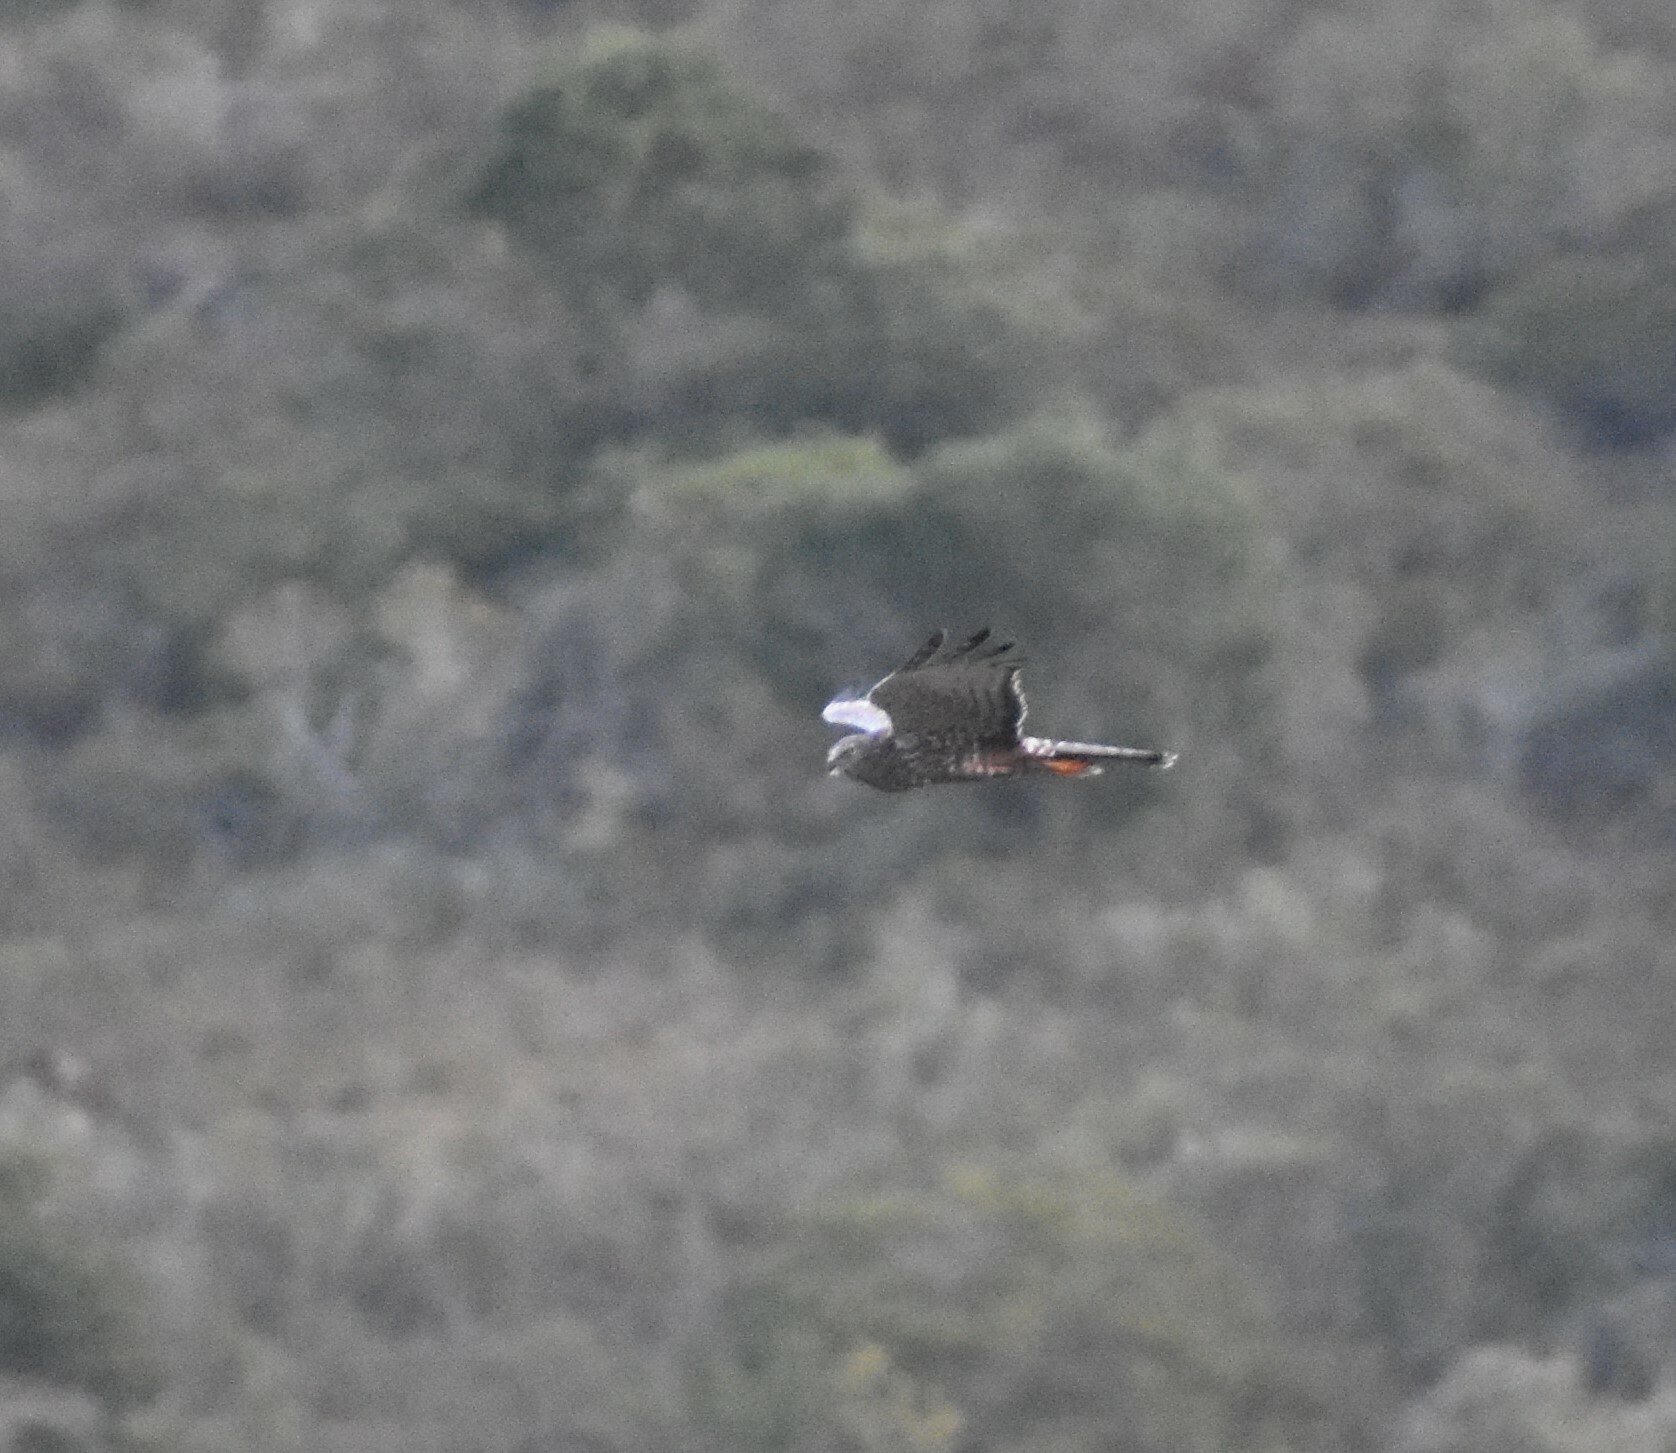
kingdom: Animalia
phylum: Chordata
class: Aves
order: Accipitriformes
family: Accipitridae
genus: Circus
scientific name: Circus ranivorus
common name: African marsh-harrier
